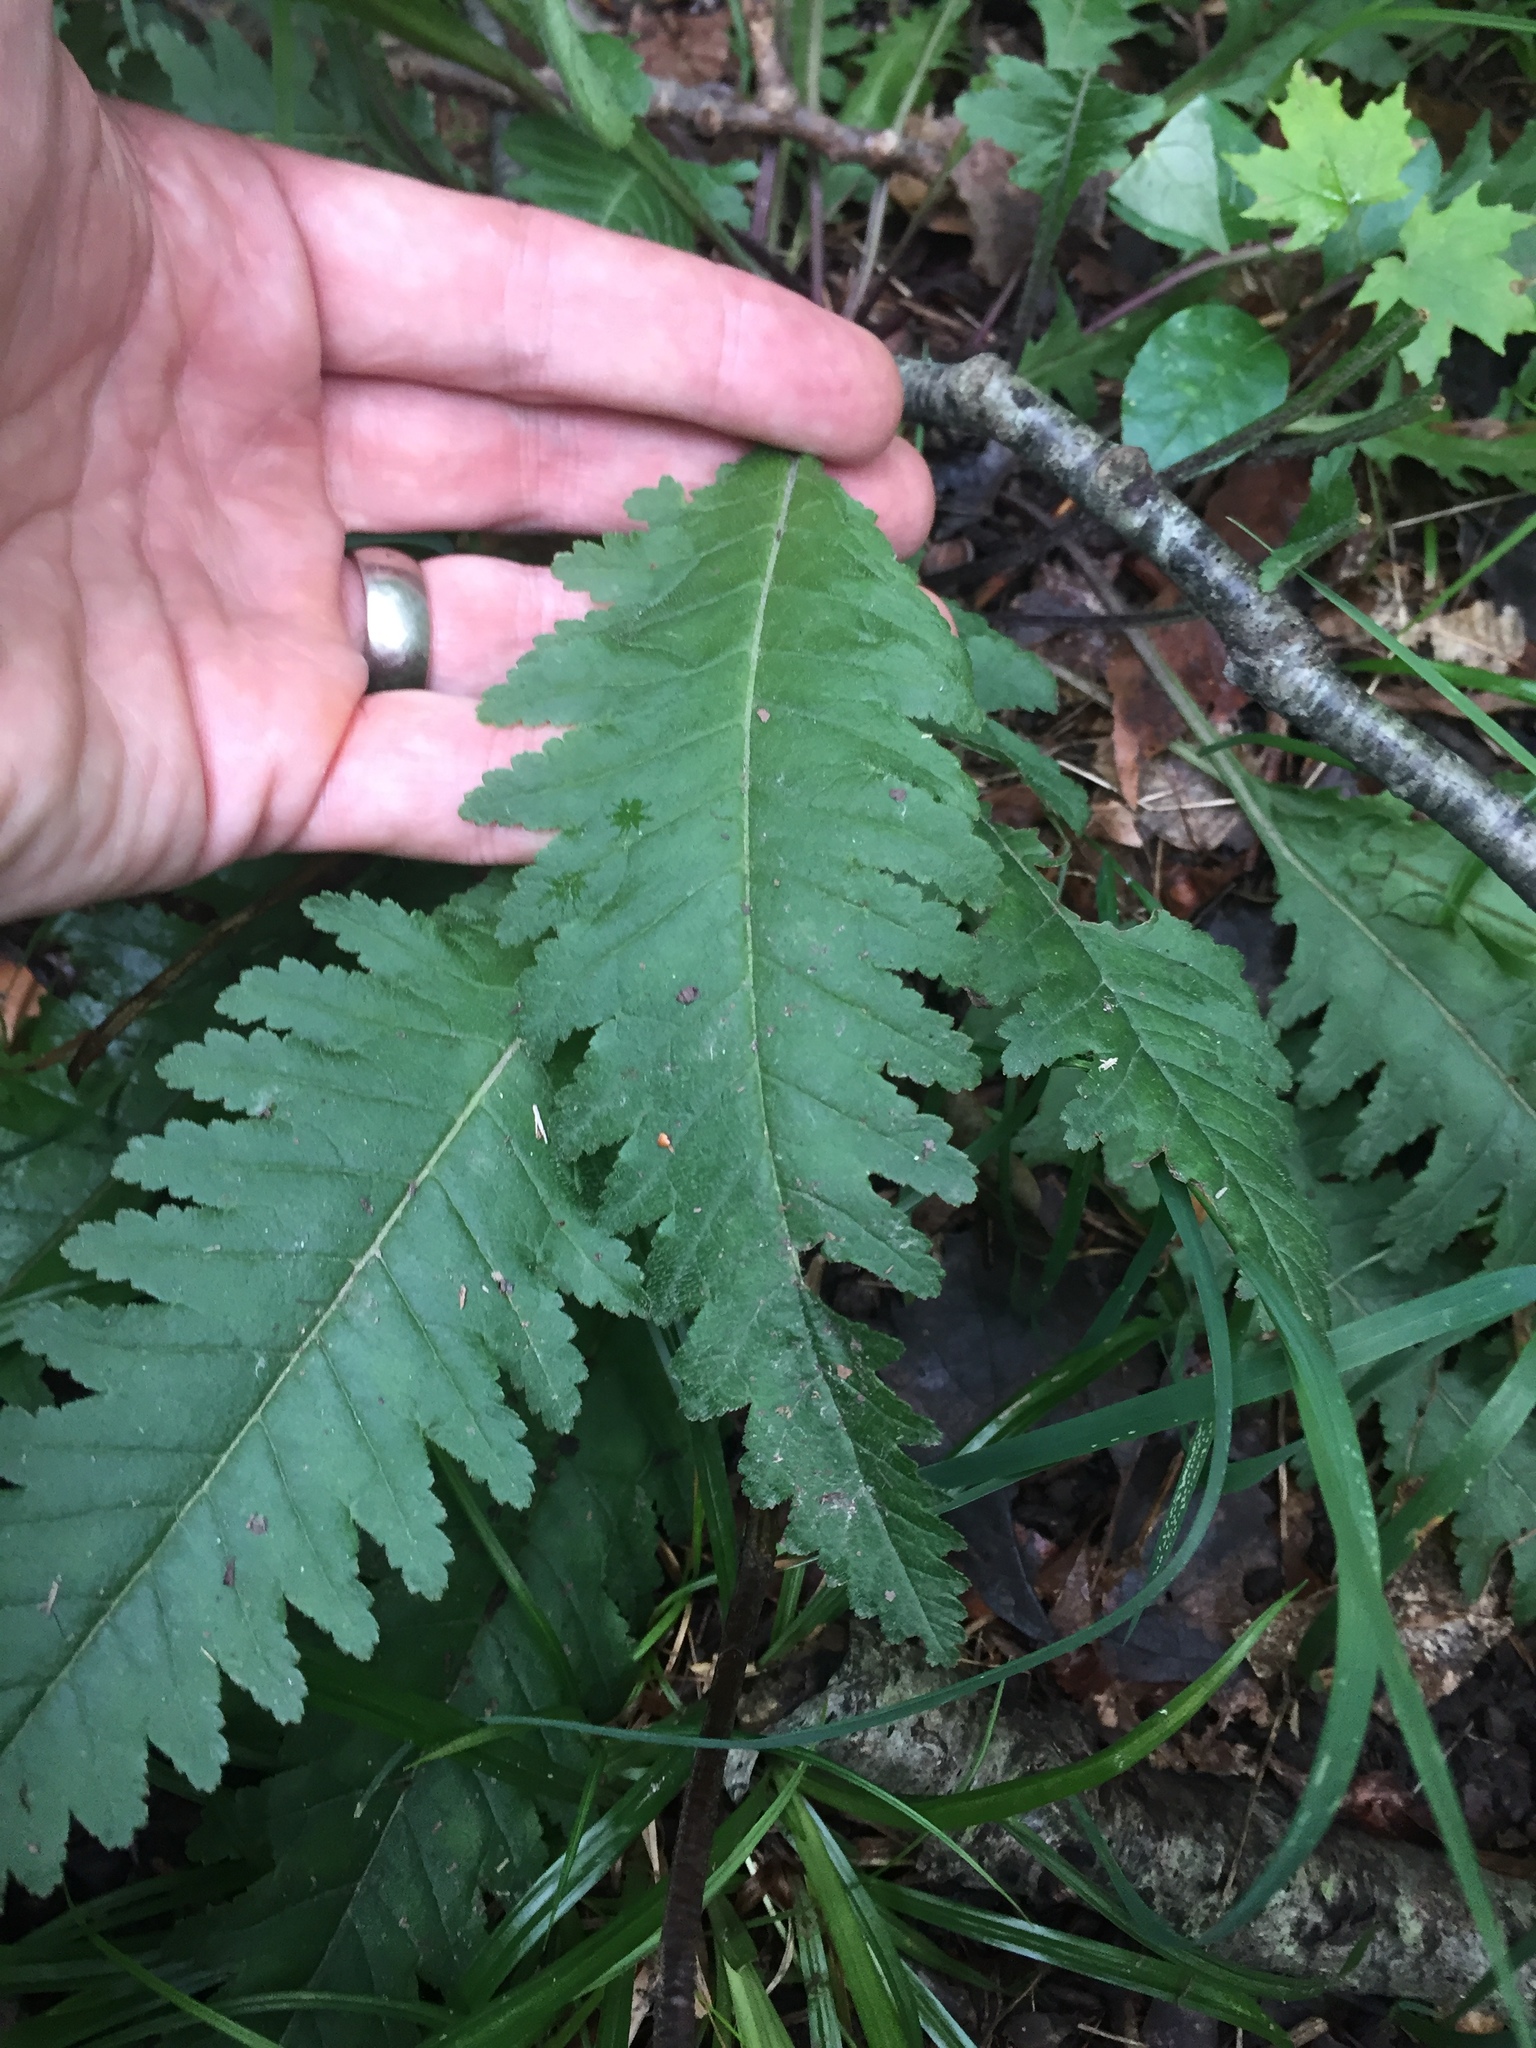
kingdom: Plantae
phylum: Tracheophyta
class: Magnoliopsida
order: Lamiales
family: Orobanchaceae
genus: Pedicularis
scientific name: Pedicularis canadensis
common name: Early lousewort
